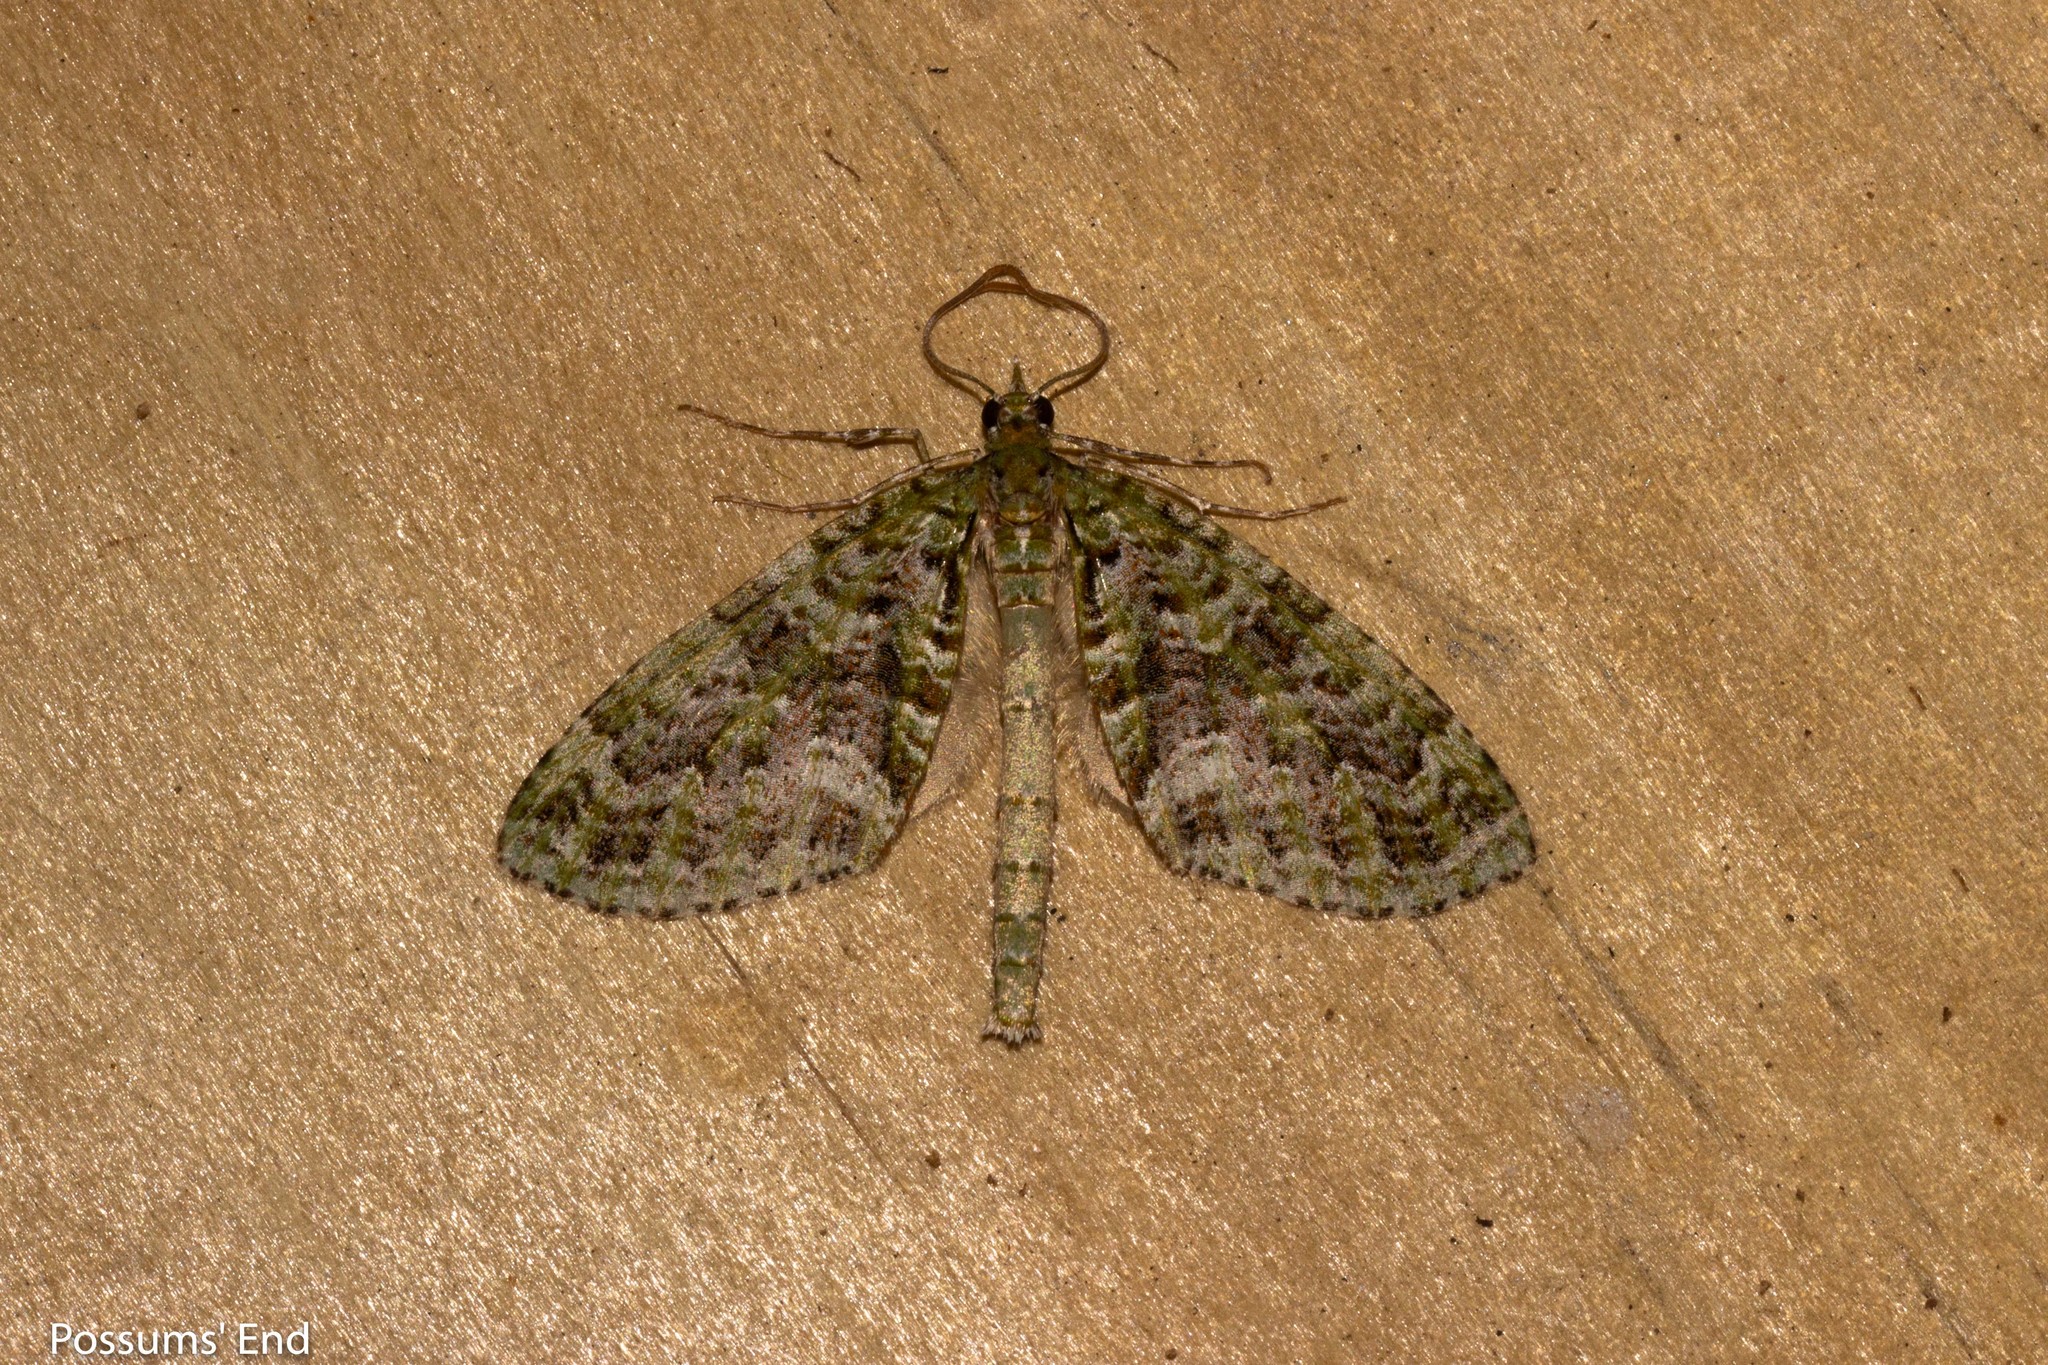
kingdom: Animalia
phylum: Arthropoda
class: Insecta
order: Lepidoptera
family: Geometridae
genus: Tatosoma
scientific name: Tatosoma agrionata
